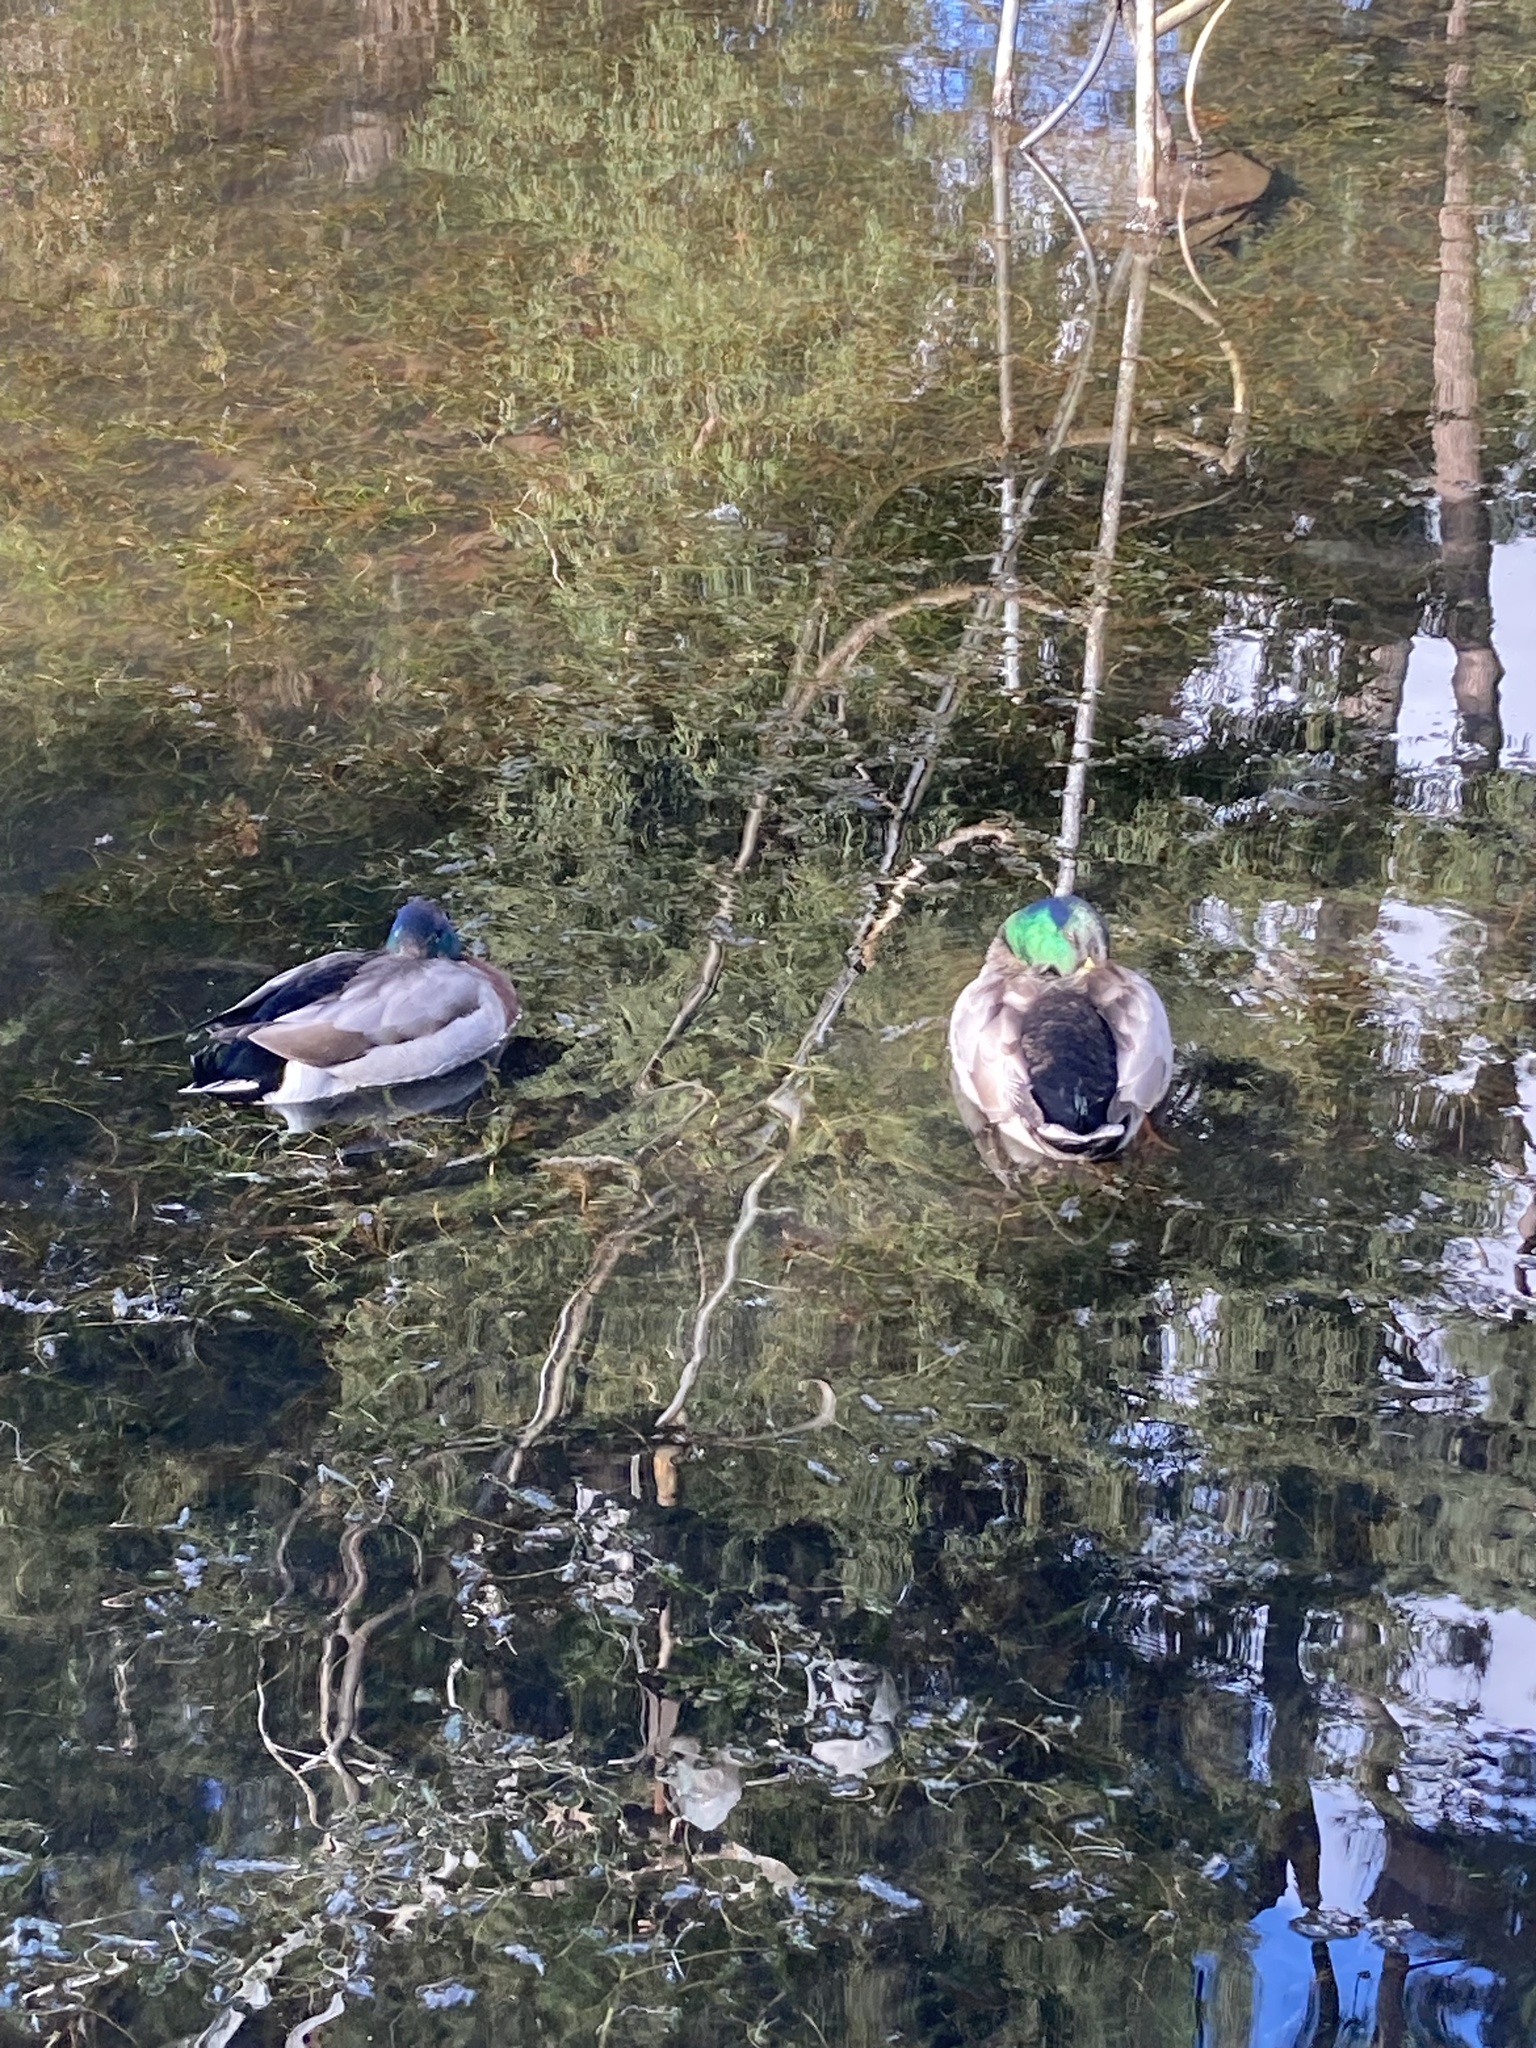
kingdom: Animalia
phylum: Chordata
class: Aves
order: Anseriformes
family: Anatidae
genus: Anas
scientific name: Anas platyrhynchos
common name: Mallard
